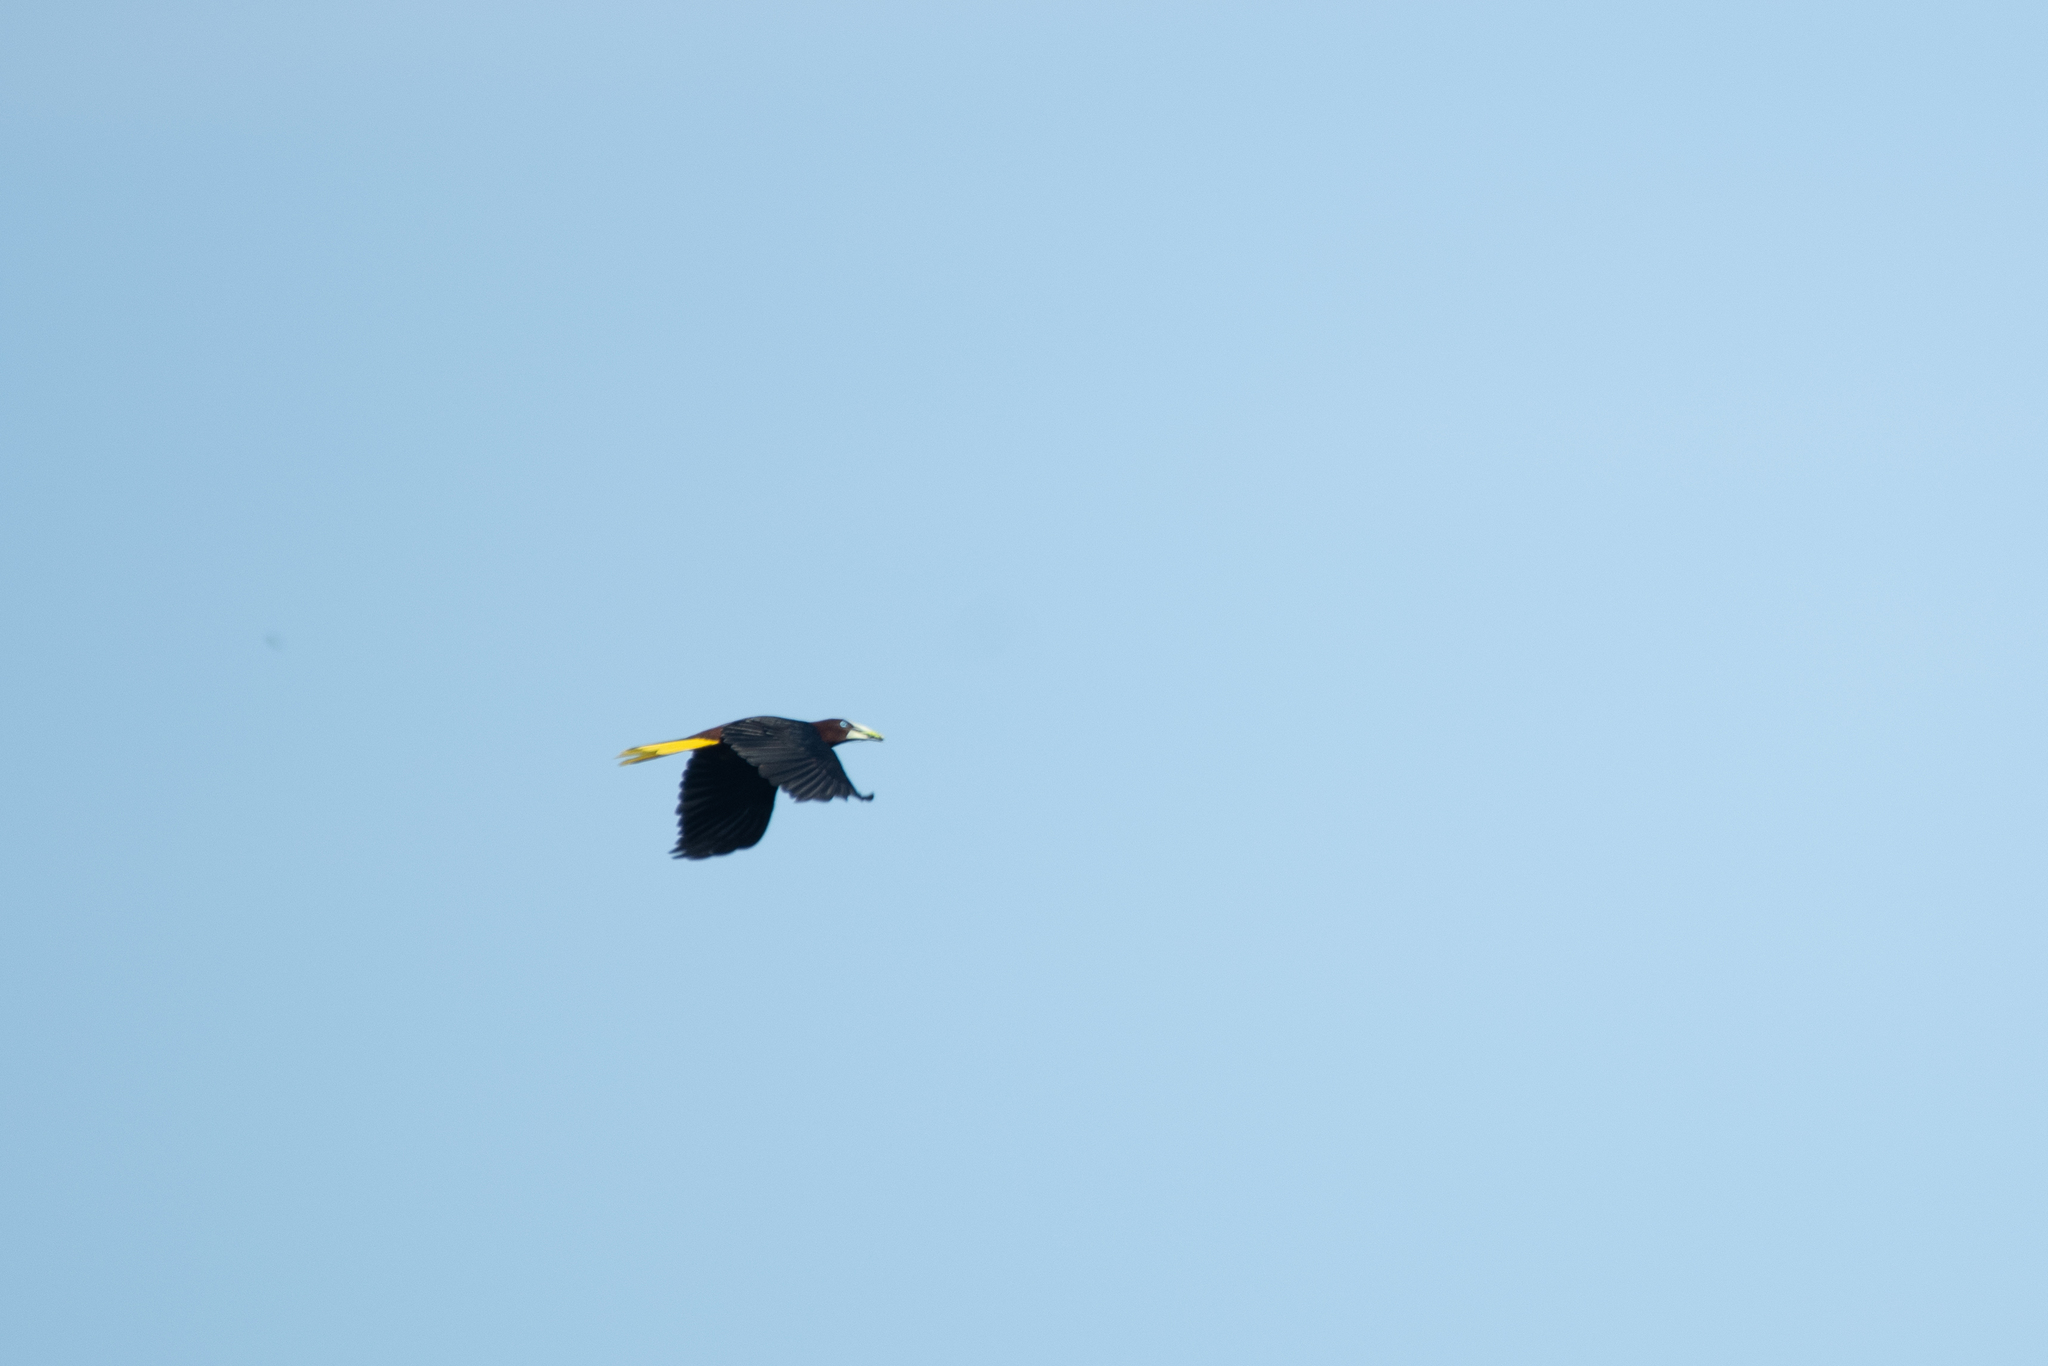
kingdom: Animalia
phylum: Chordata
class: Aves
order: Passeriformes
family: Icteridae
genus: Psarocolius
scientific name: Psarocolius wagleri
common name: Chestnut-headed oropendola
